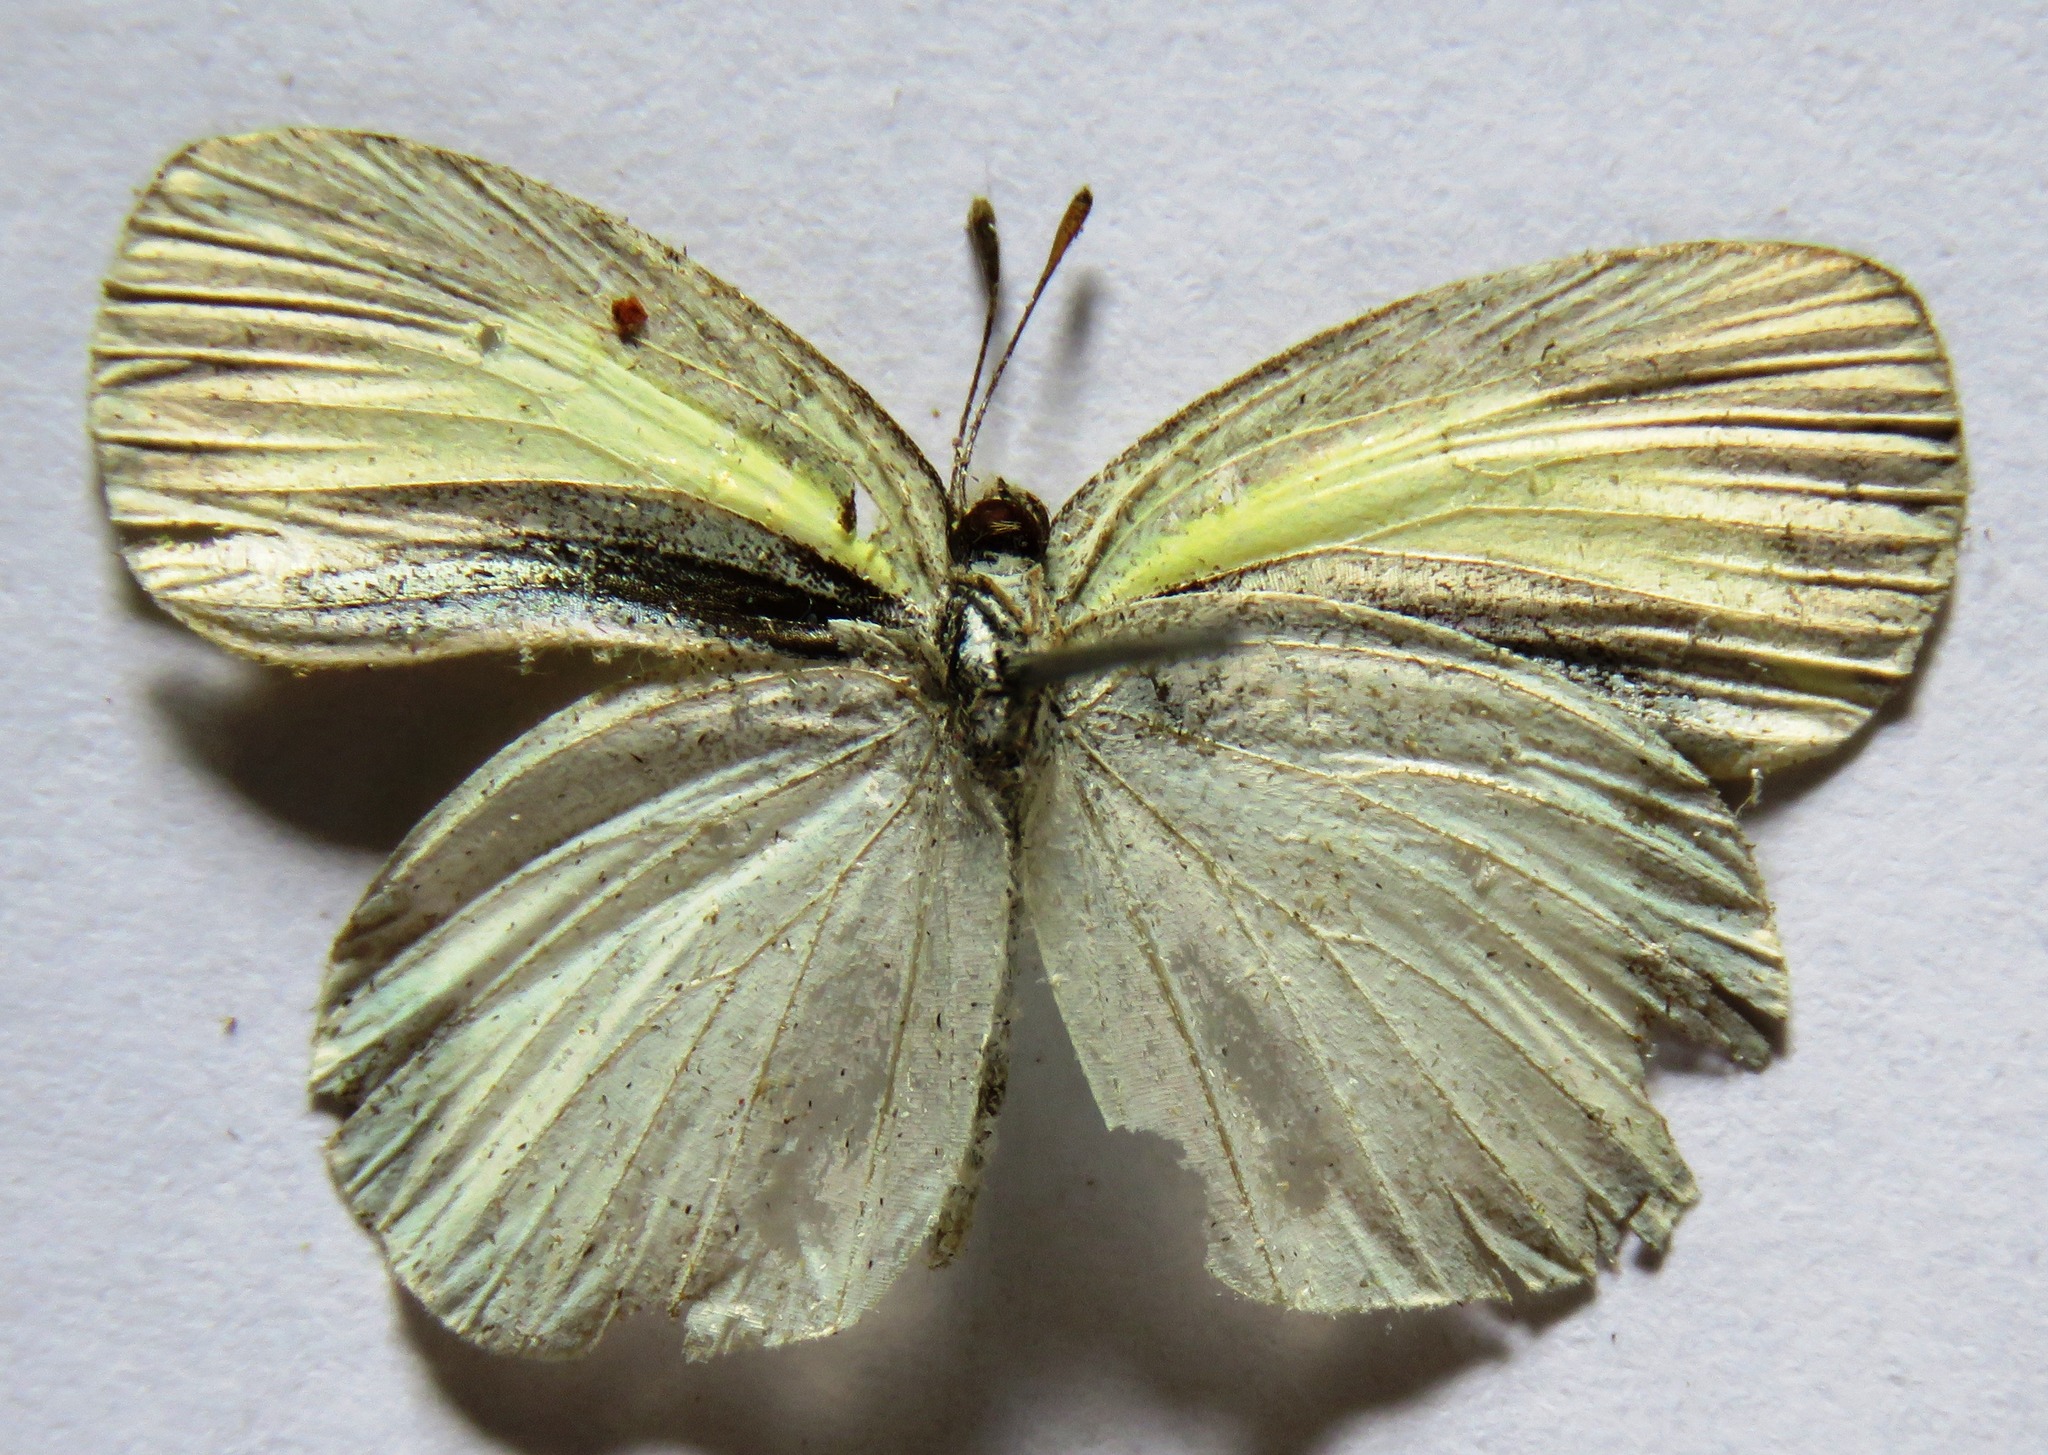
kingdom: Animalia
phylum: Arthropoda
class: Insecta
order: Lepidoptera
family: Pieridae
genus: Eurema
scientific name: Eurema daira
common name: Barred sulphur
